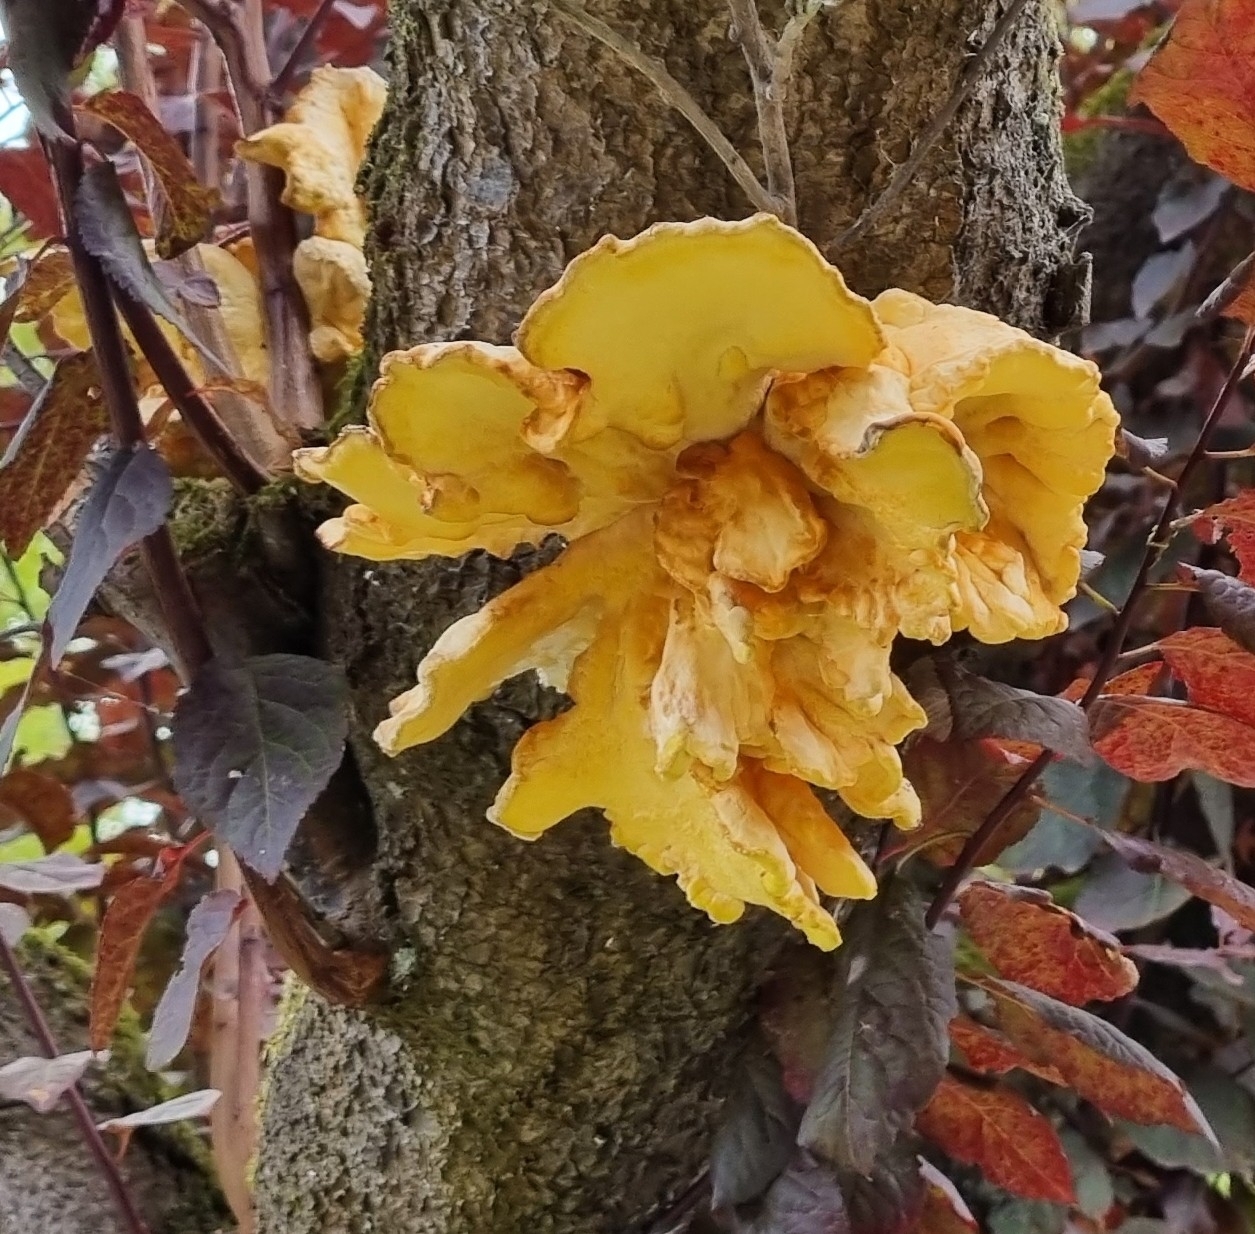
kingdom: Fungi
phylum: Basidiomycota
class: Agaricomycetes
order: Polyporales
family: Laetiporaceae
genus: Laetiporus
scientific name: Laetiporus sulphureus
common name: Chicken of the woods
